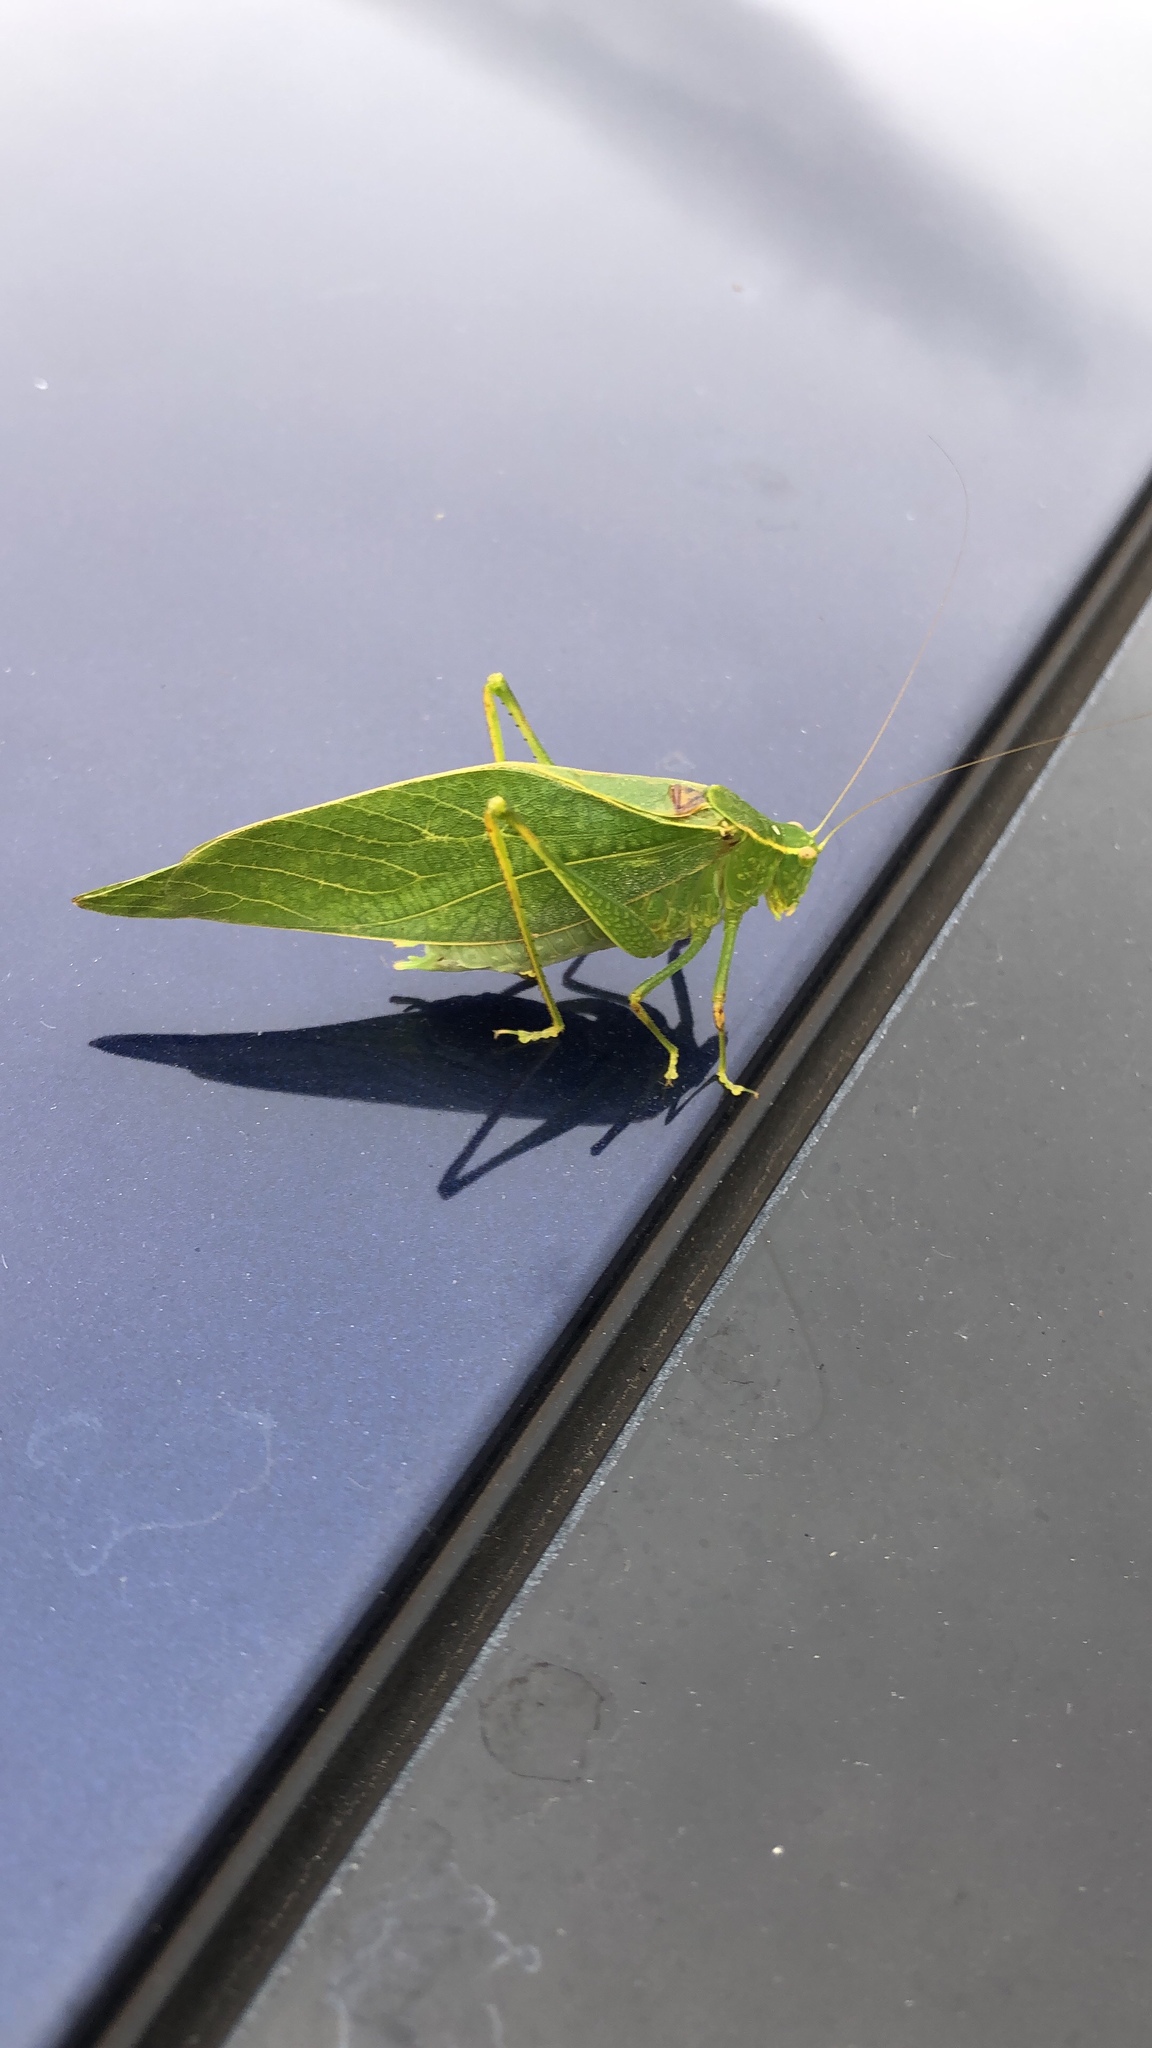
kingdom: Animalia
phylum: Arthropoda
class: Insecta
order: Orthoptera
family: Tettigoniidae
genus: Microcentrum
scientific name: Microcentrum retinerve
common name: Angular-winged katydid
